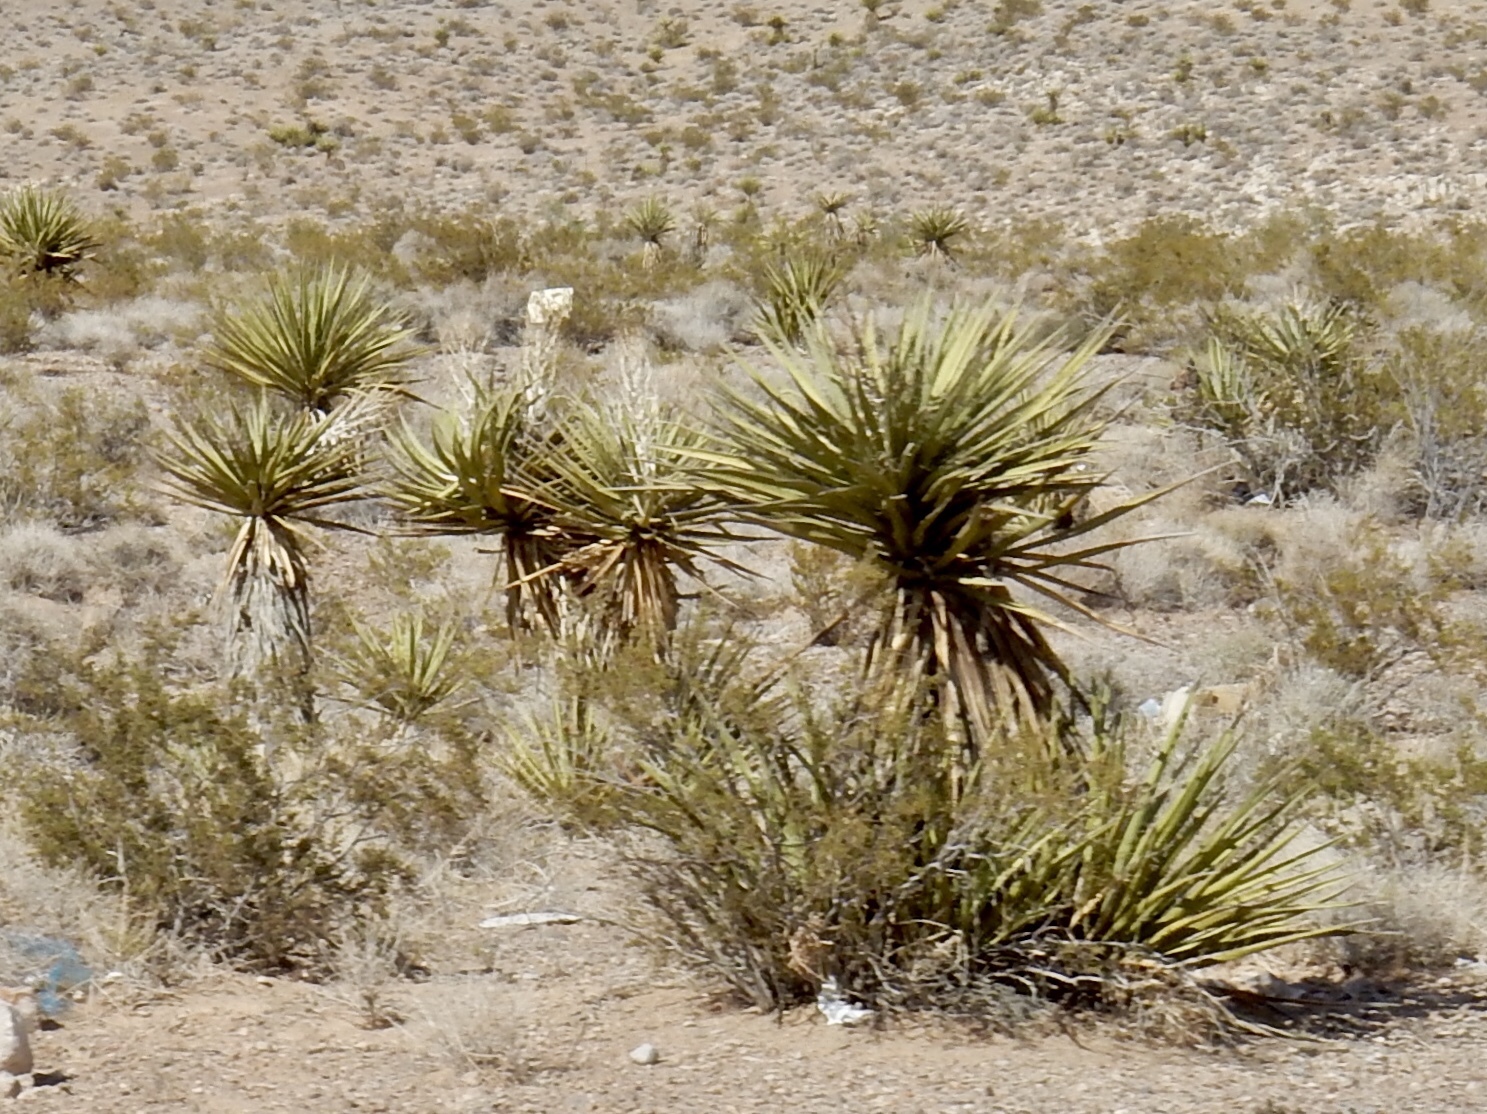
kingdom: Plantae
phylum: Tracheophyta
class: Liliopsida
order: Asparagales
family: Asparagaceae
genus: Yucca
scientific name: Yucca schidigera
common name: Mojave yucca
